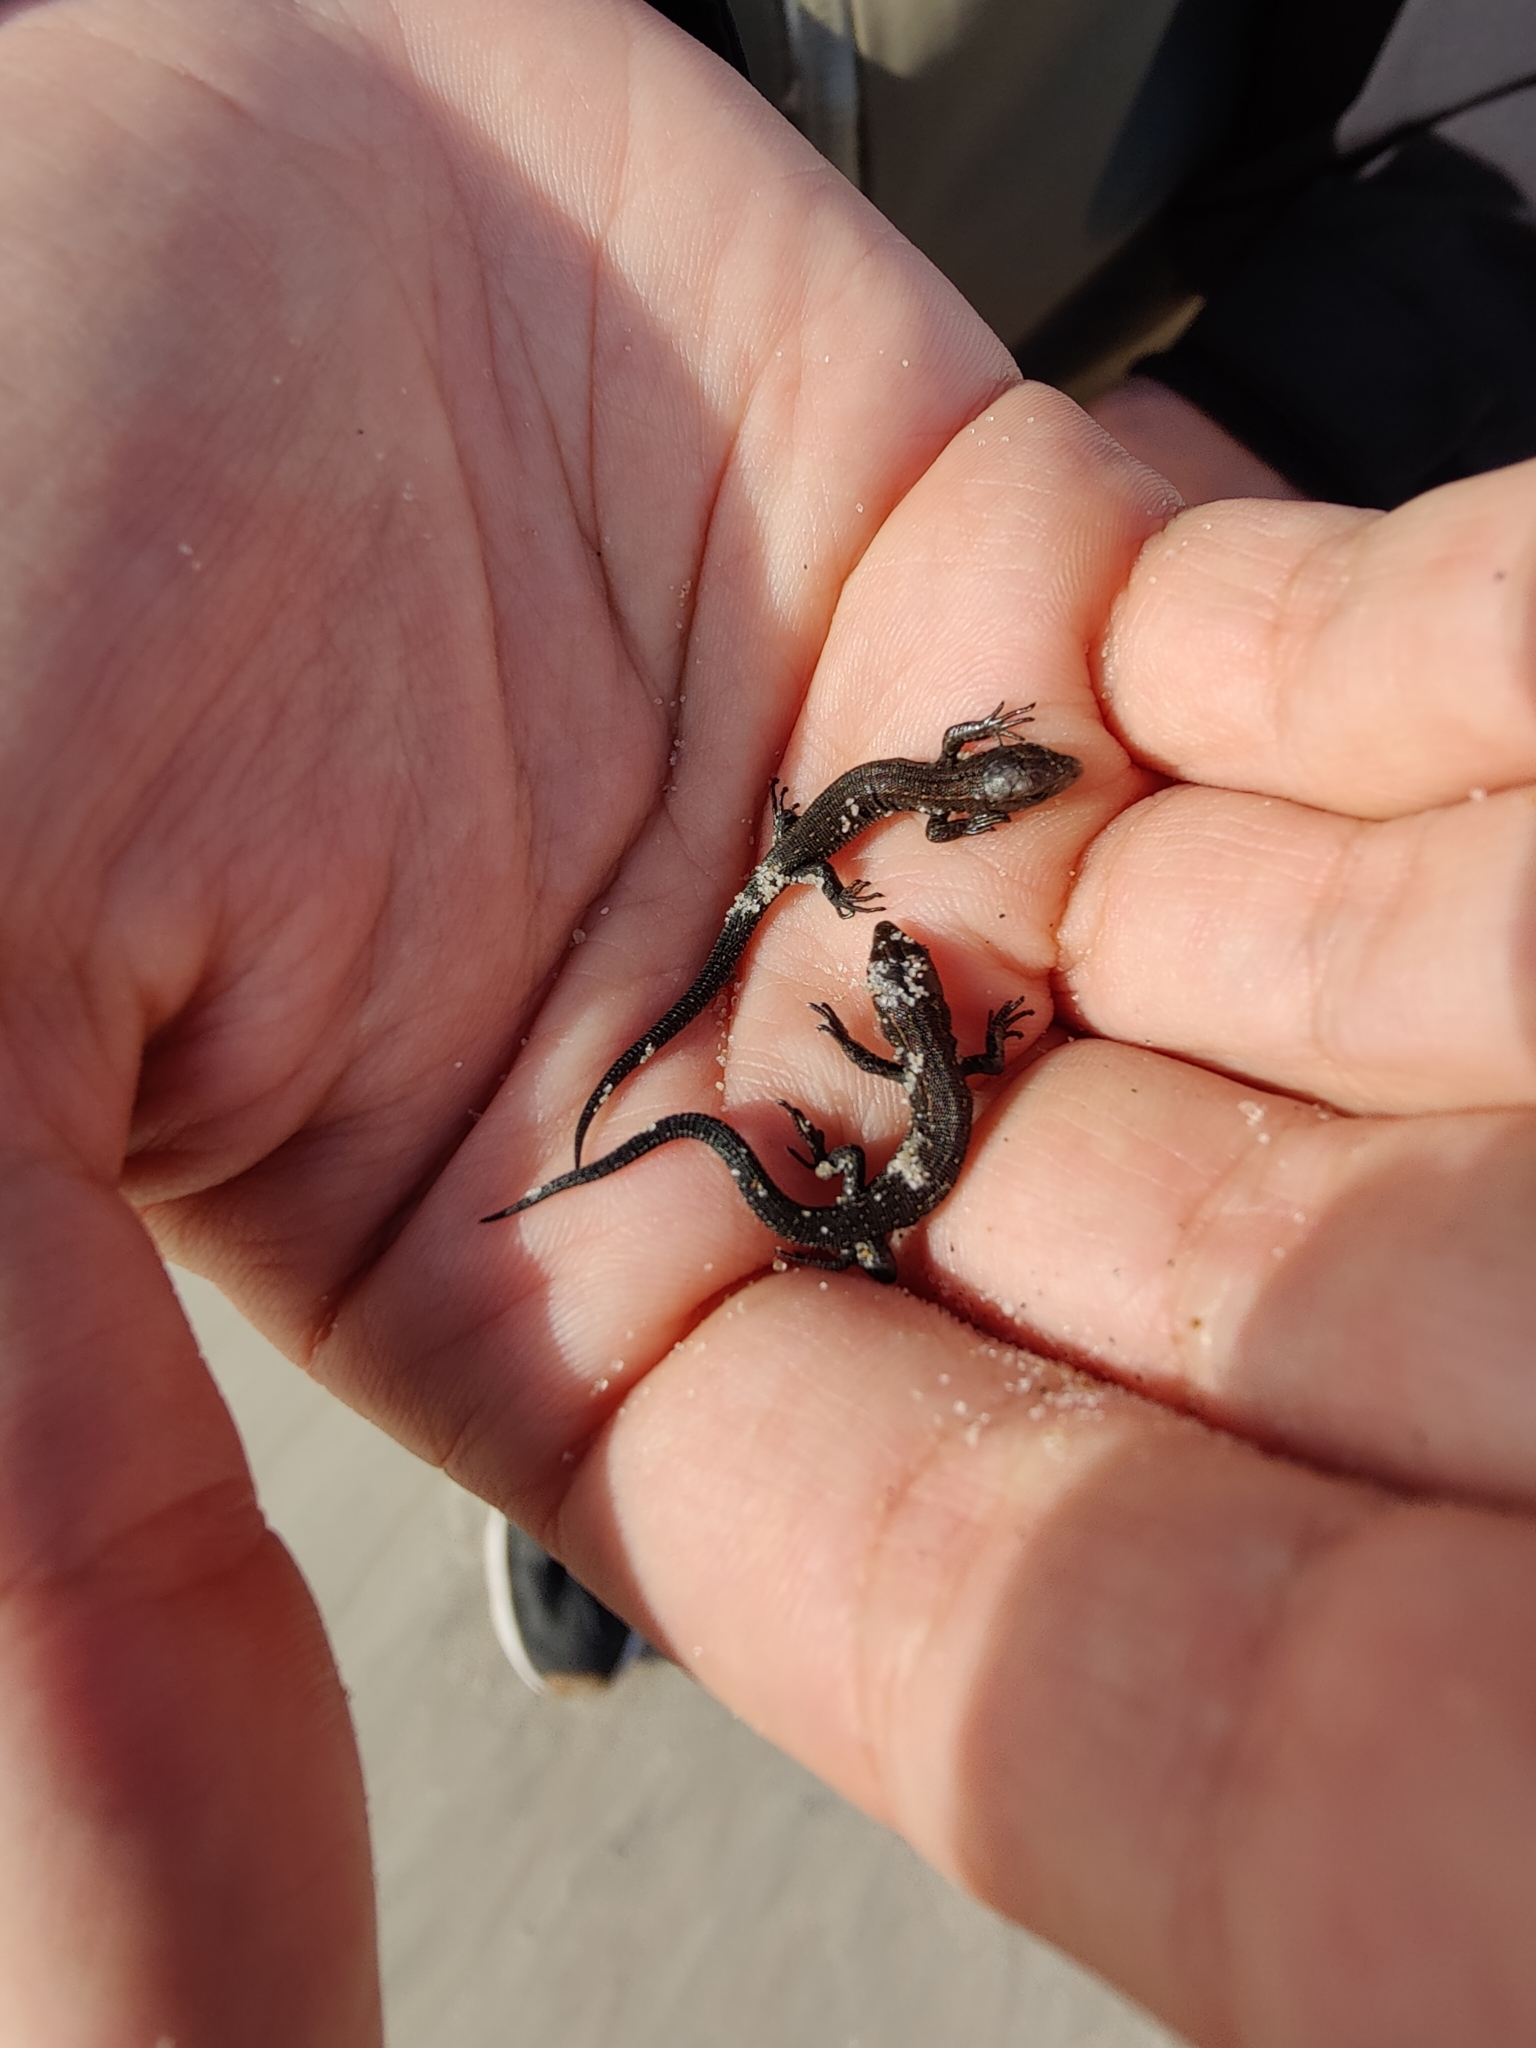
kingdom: Animalia
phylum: Chordata
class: Squamata
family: Lacertidae
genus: Zootoca
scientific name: Zootoca vivipara
